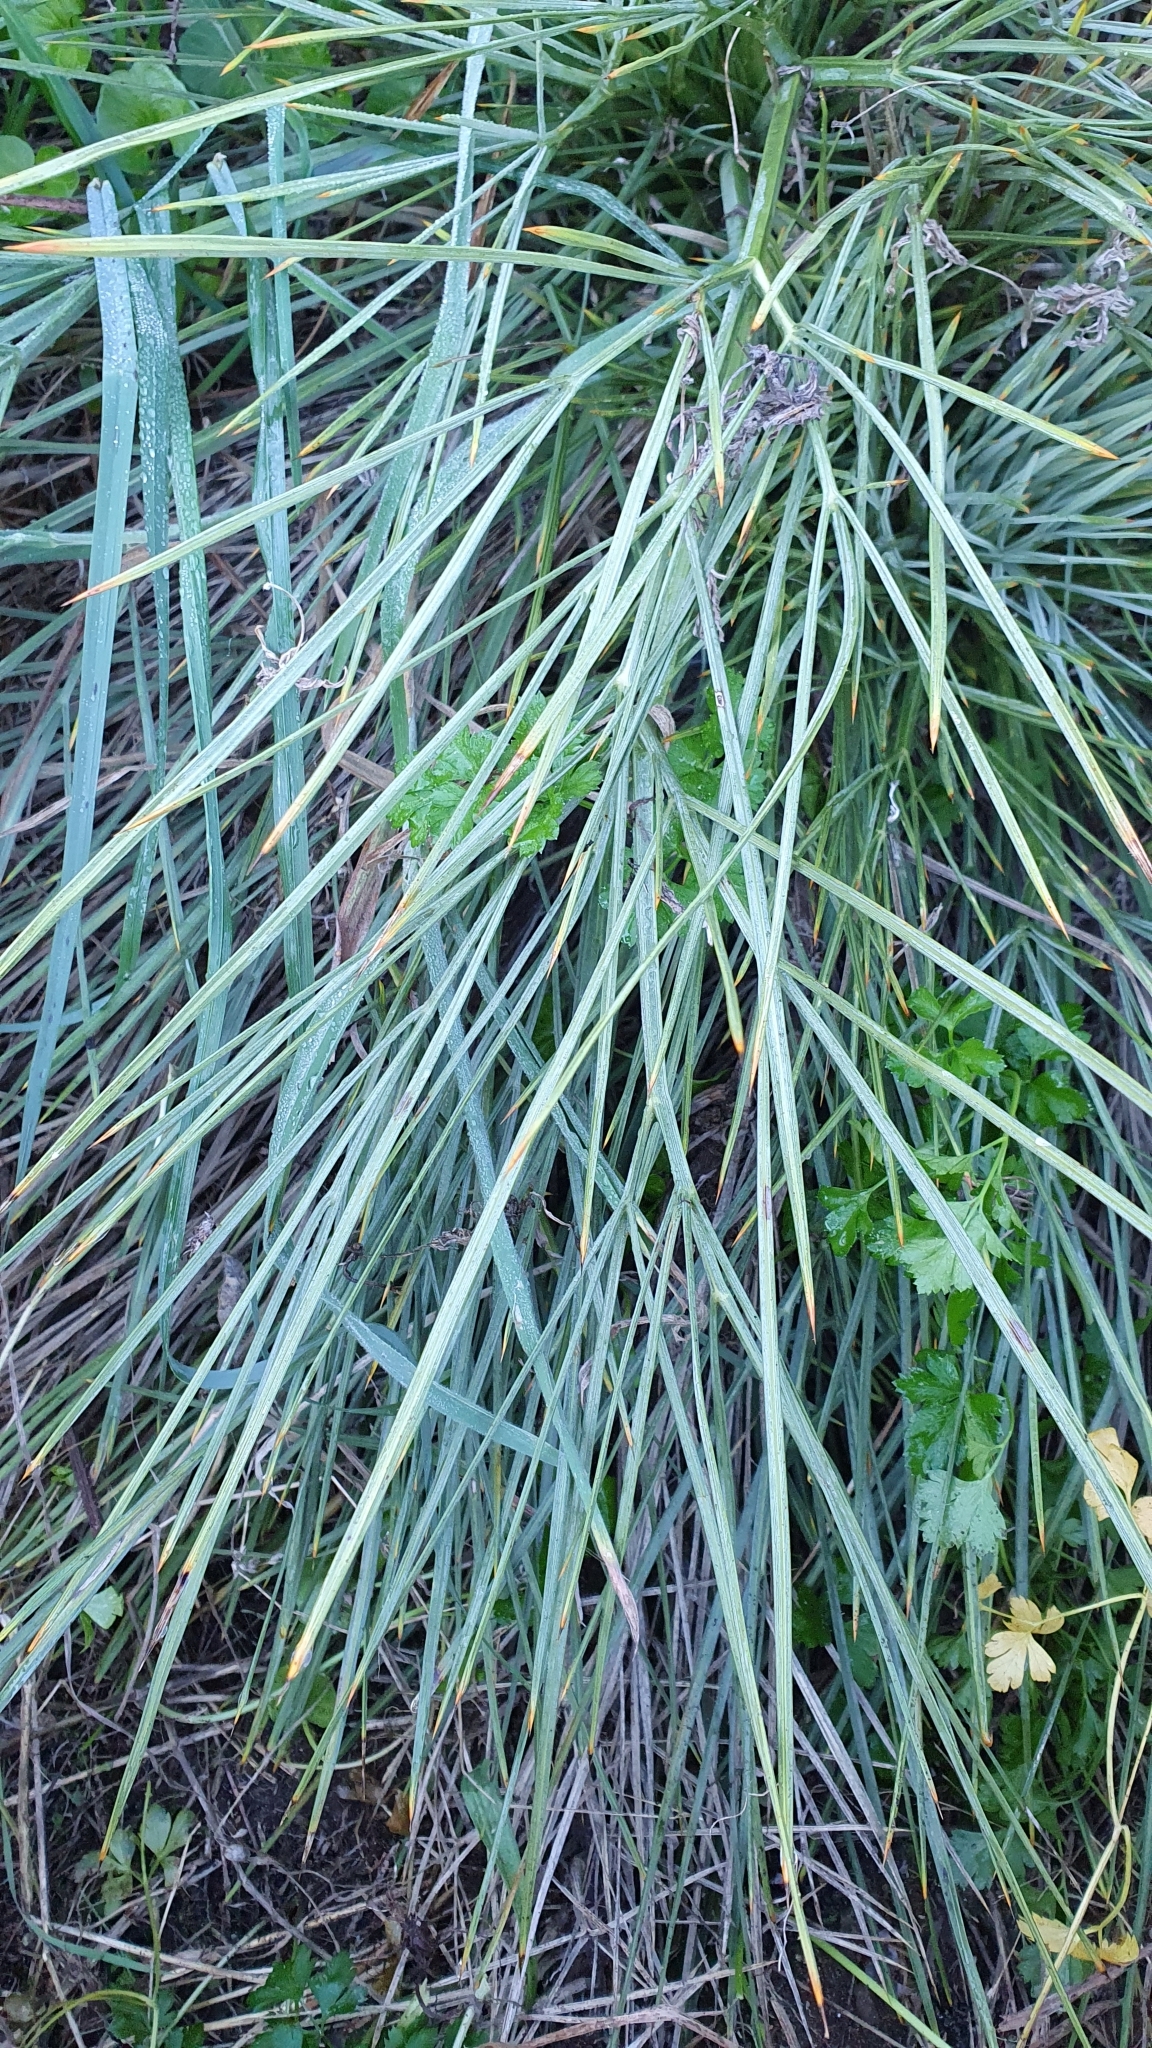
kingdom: Plantae
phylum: Tracheophyta
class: Magnoliopsida
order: Apiales
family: Apiaceae
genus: Aciphylla
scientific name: Aciphylla squarrosa
